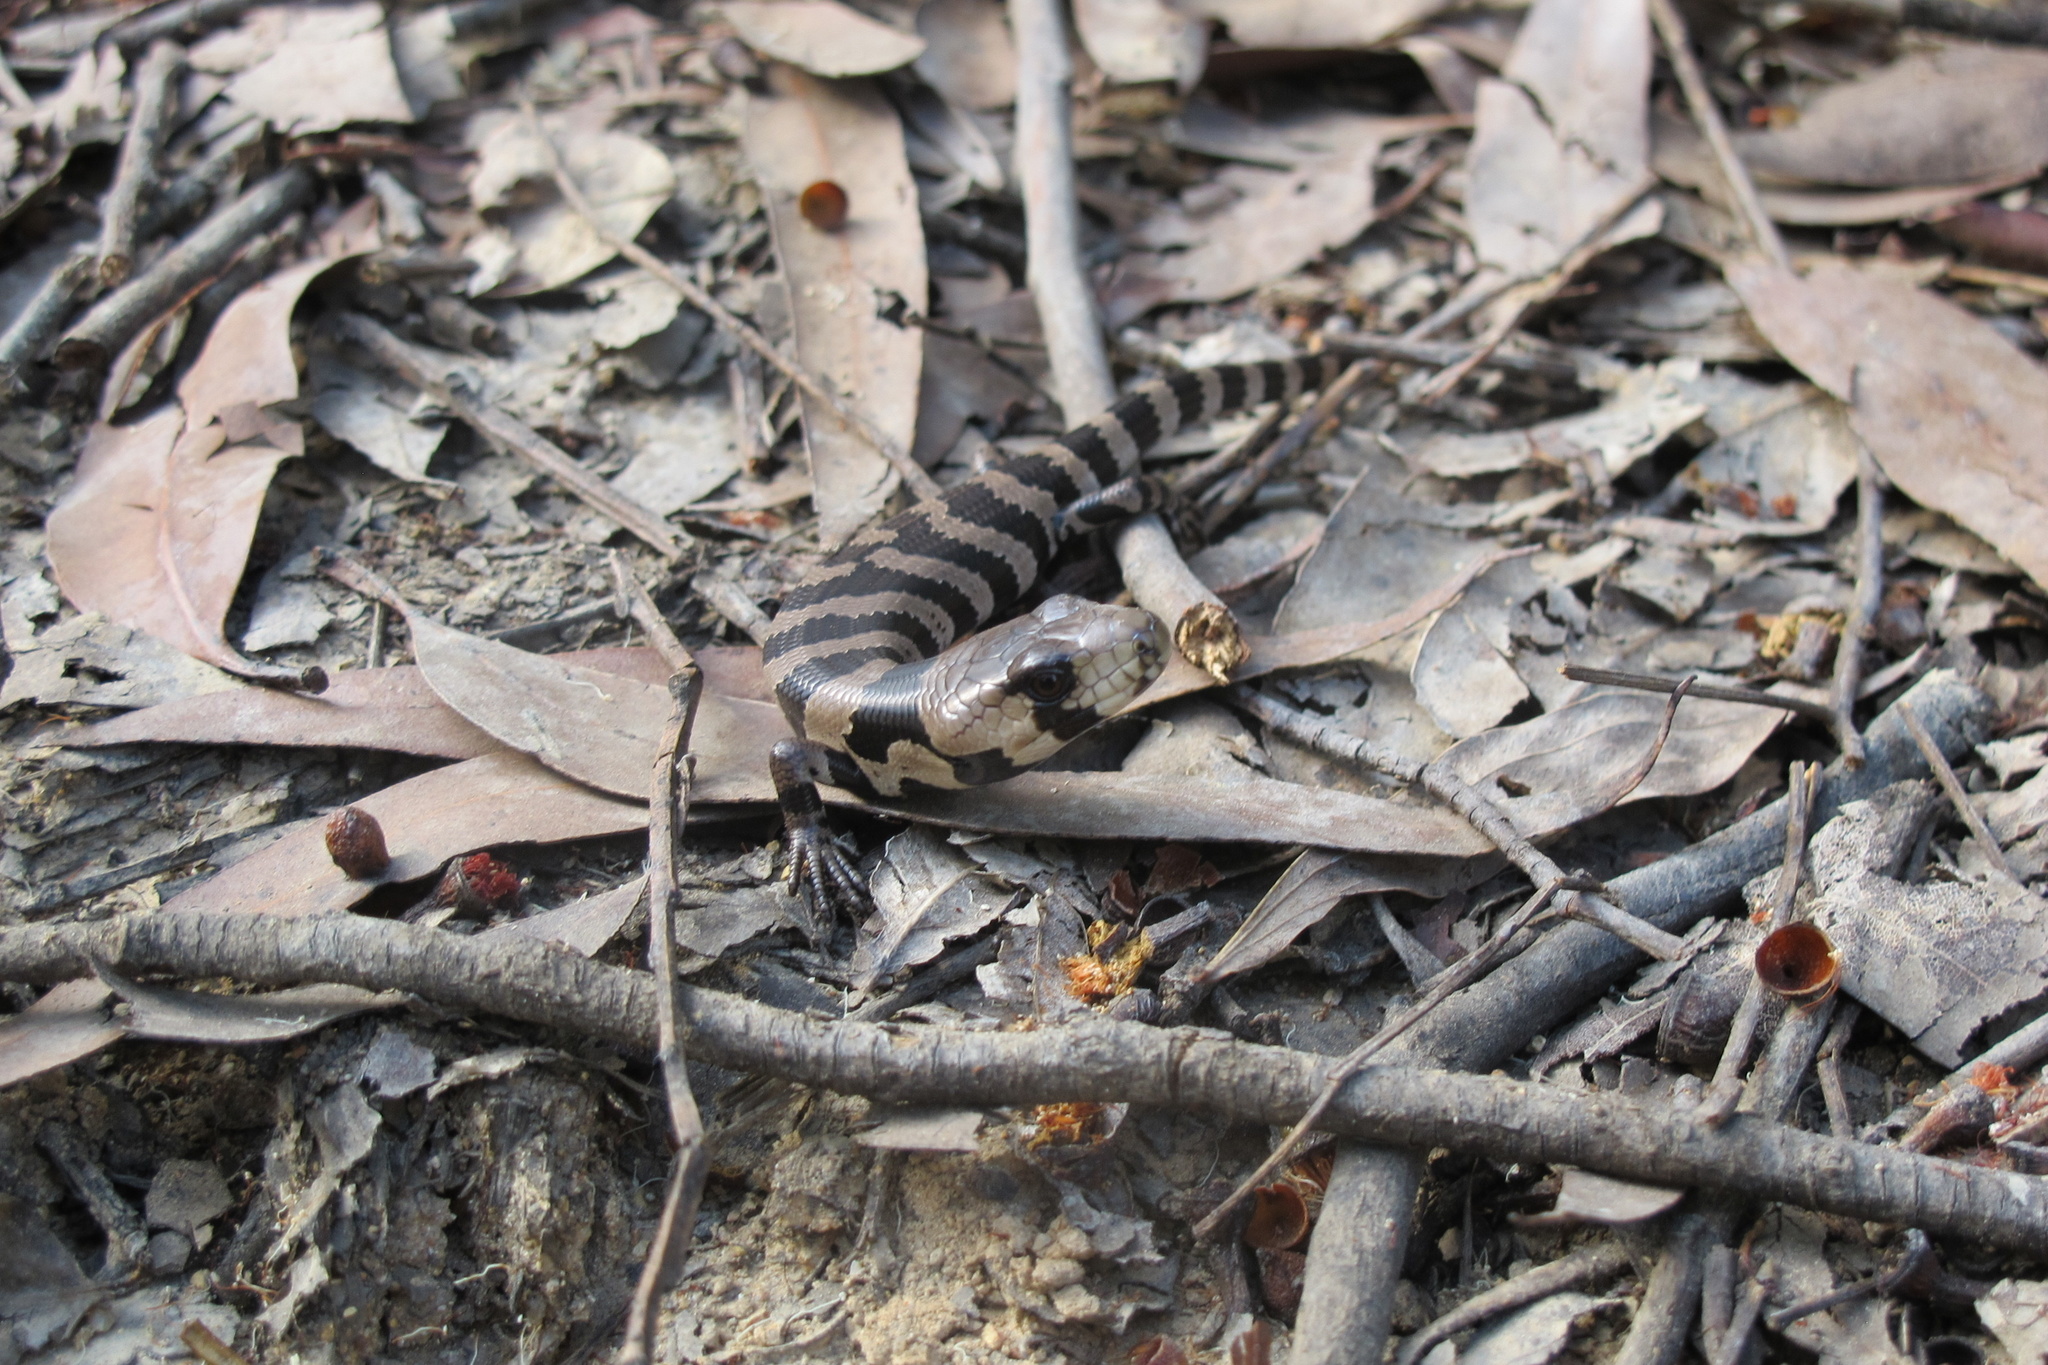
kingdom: Animalia
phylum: Chordata
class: Squamata
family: Scincidae
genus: Cyclodomorphus
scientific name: Cyclodomorphus gerrardii
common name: Pink-tongued lizard
